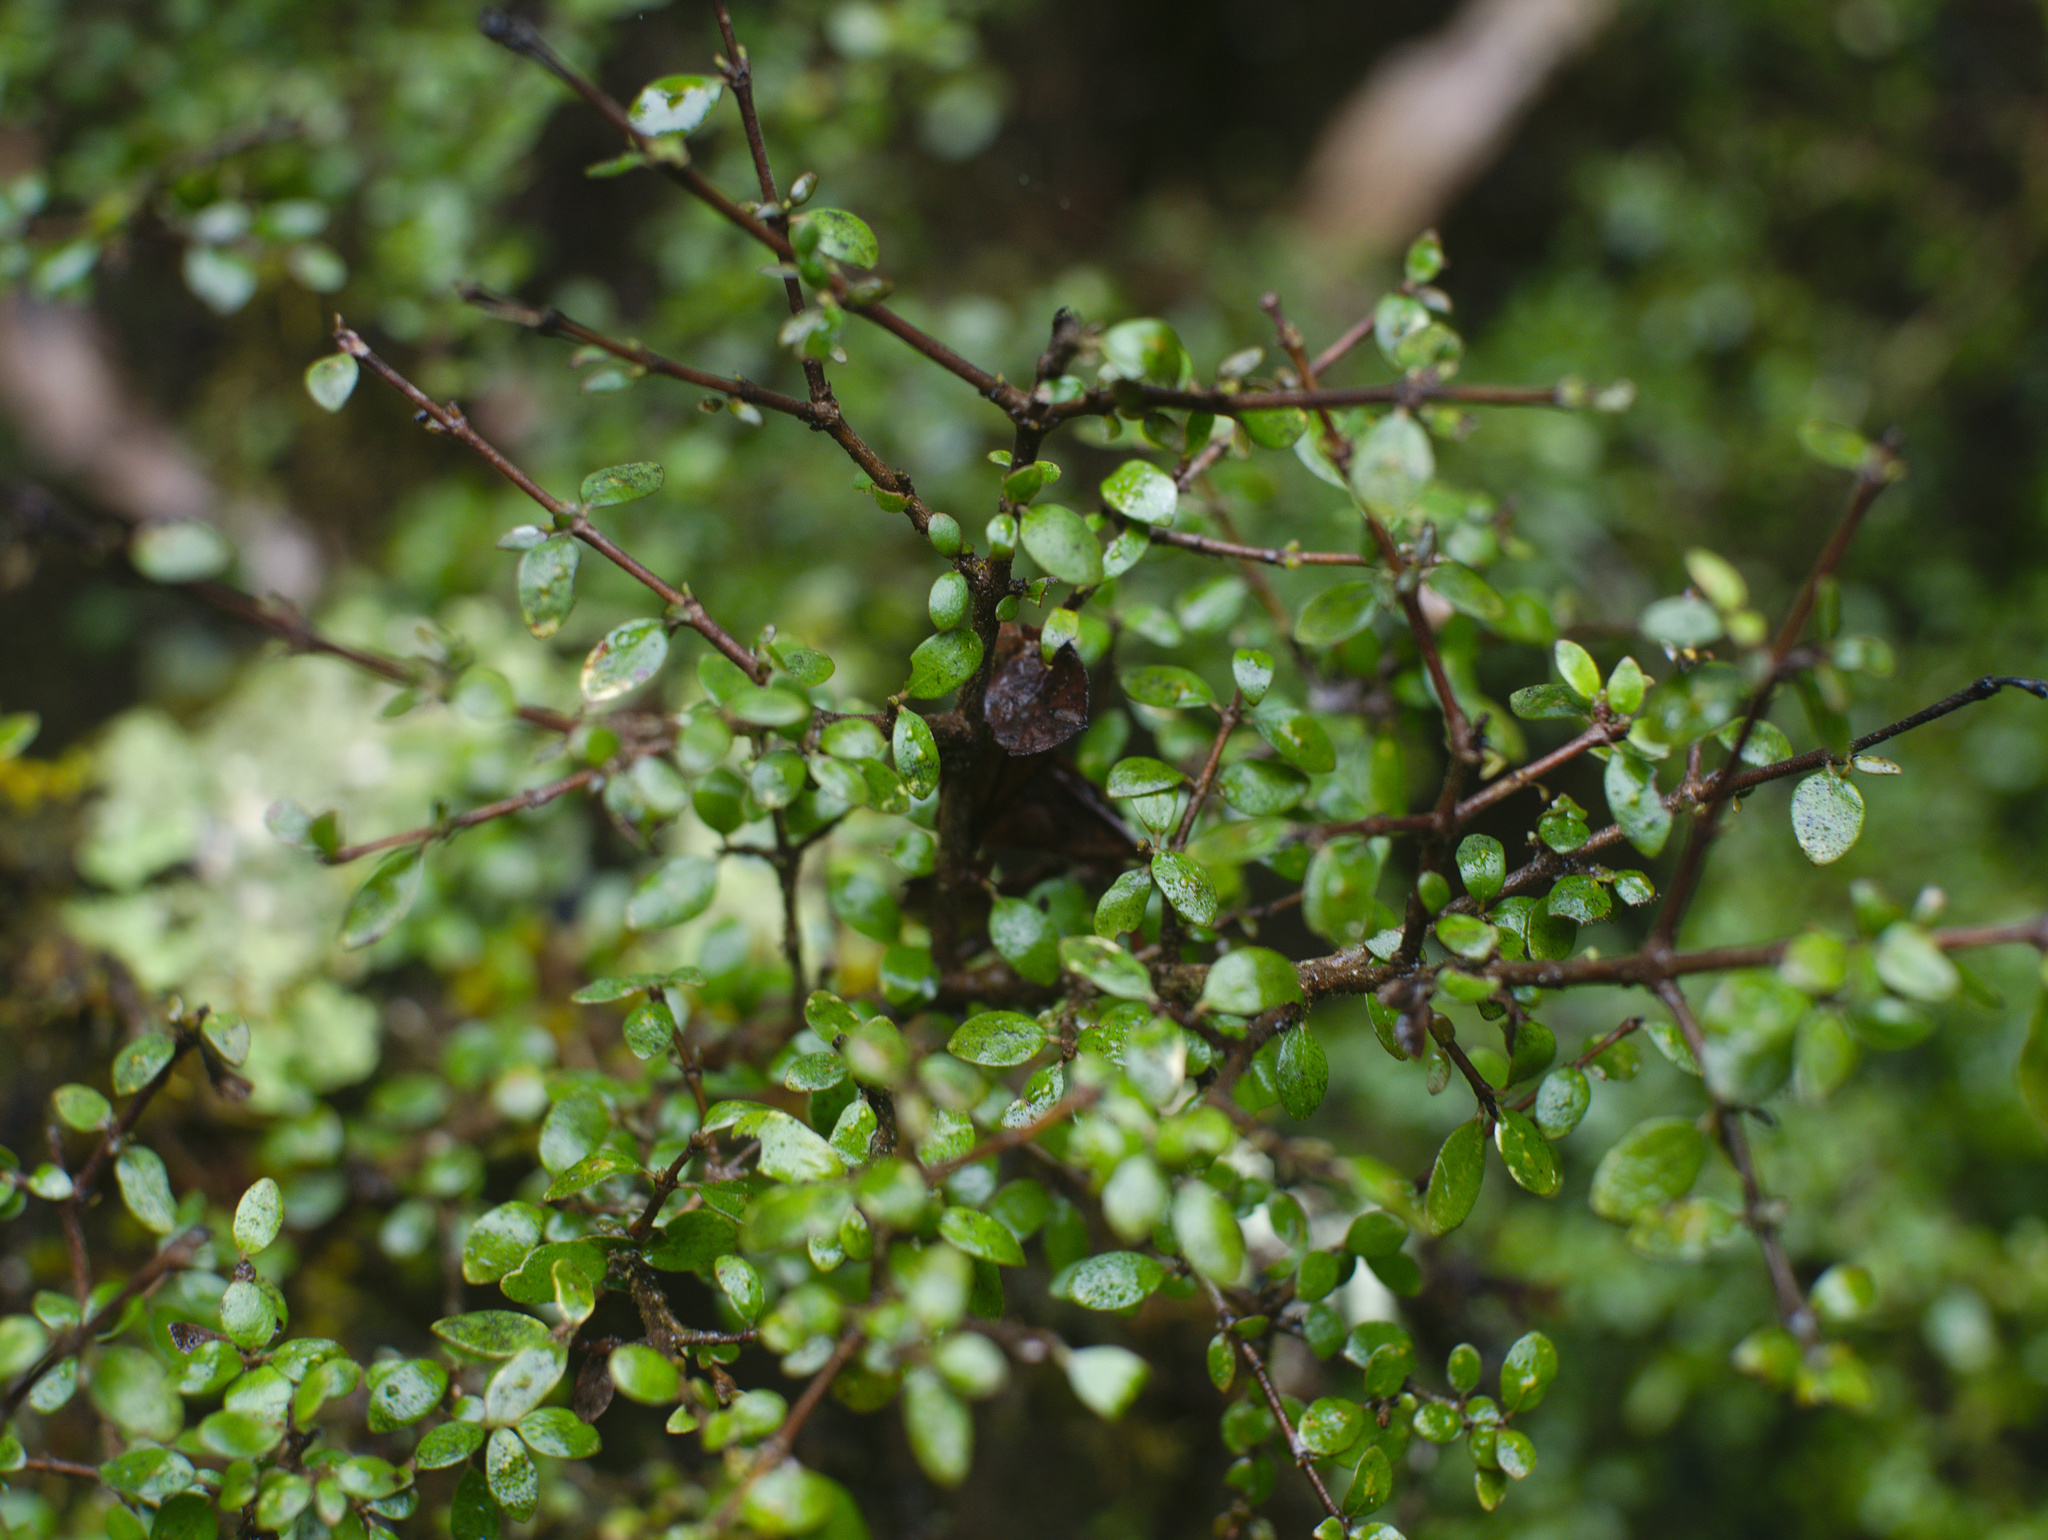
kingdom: Plantae
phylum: Tracheophyta
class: Magnoliopsida
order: Gentianales
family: Rubiaceae
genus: Coprosma
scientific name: Coprosma wallii
